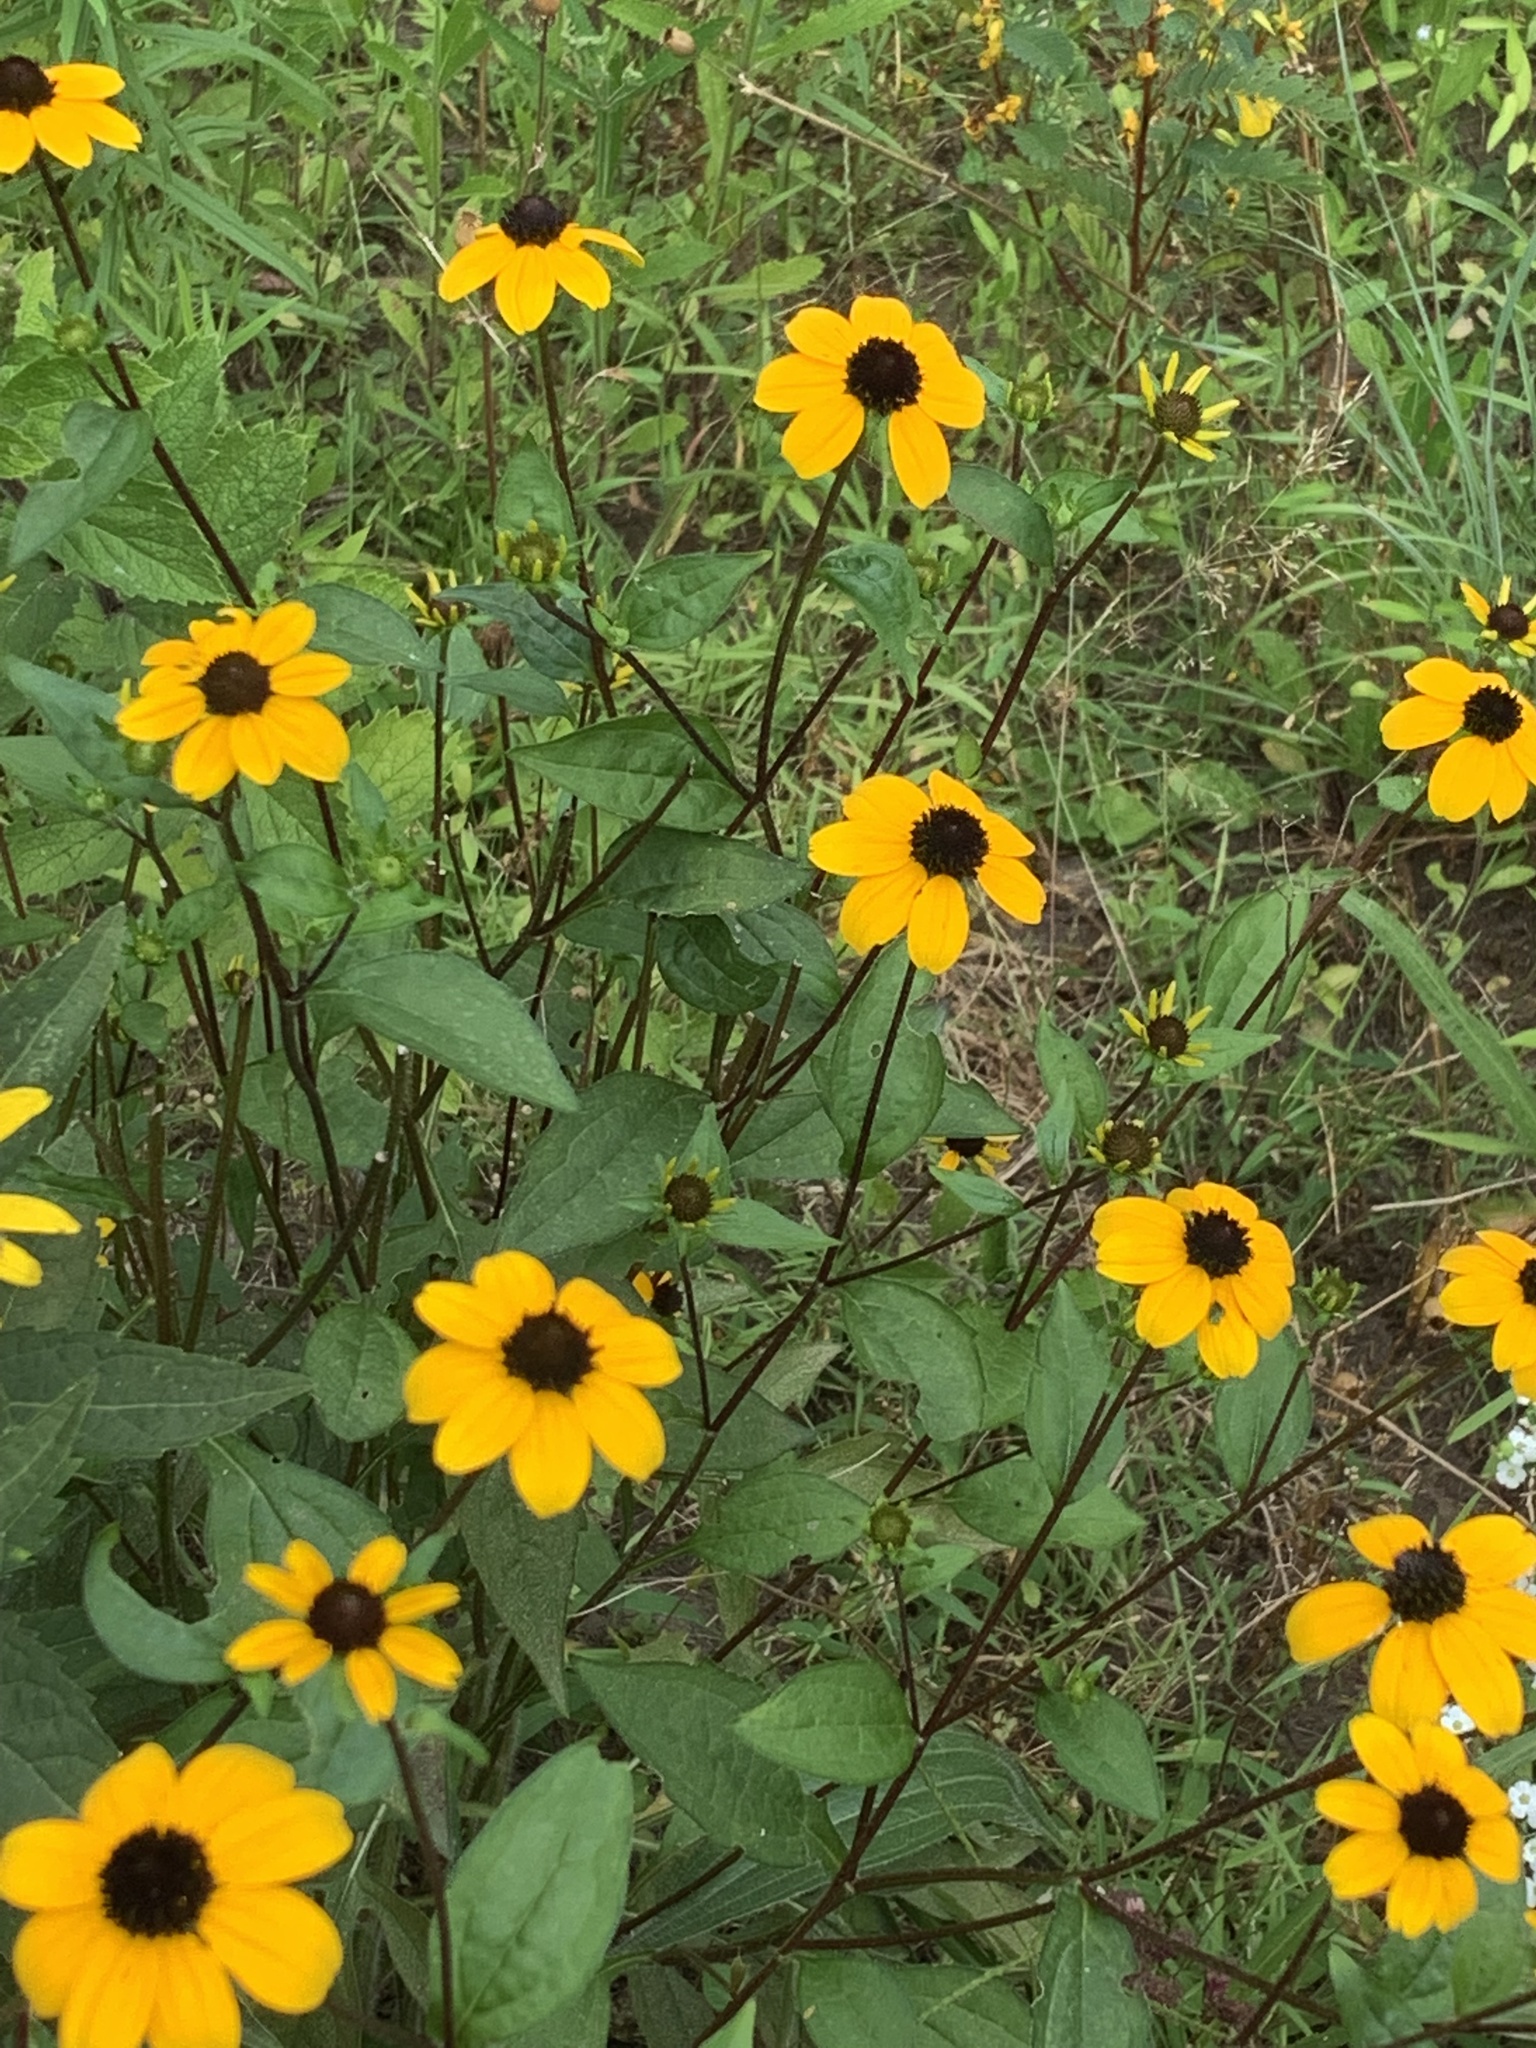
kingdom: Plantae
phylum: Tracheophyta
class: Magnoliopsida
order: Asterales
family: Asteraceae
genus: Rudbeckia
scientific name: Rudbeckia triloba
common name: Thin-leaved coneflower
